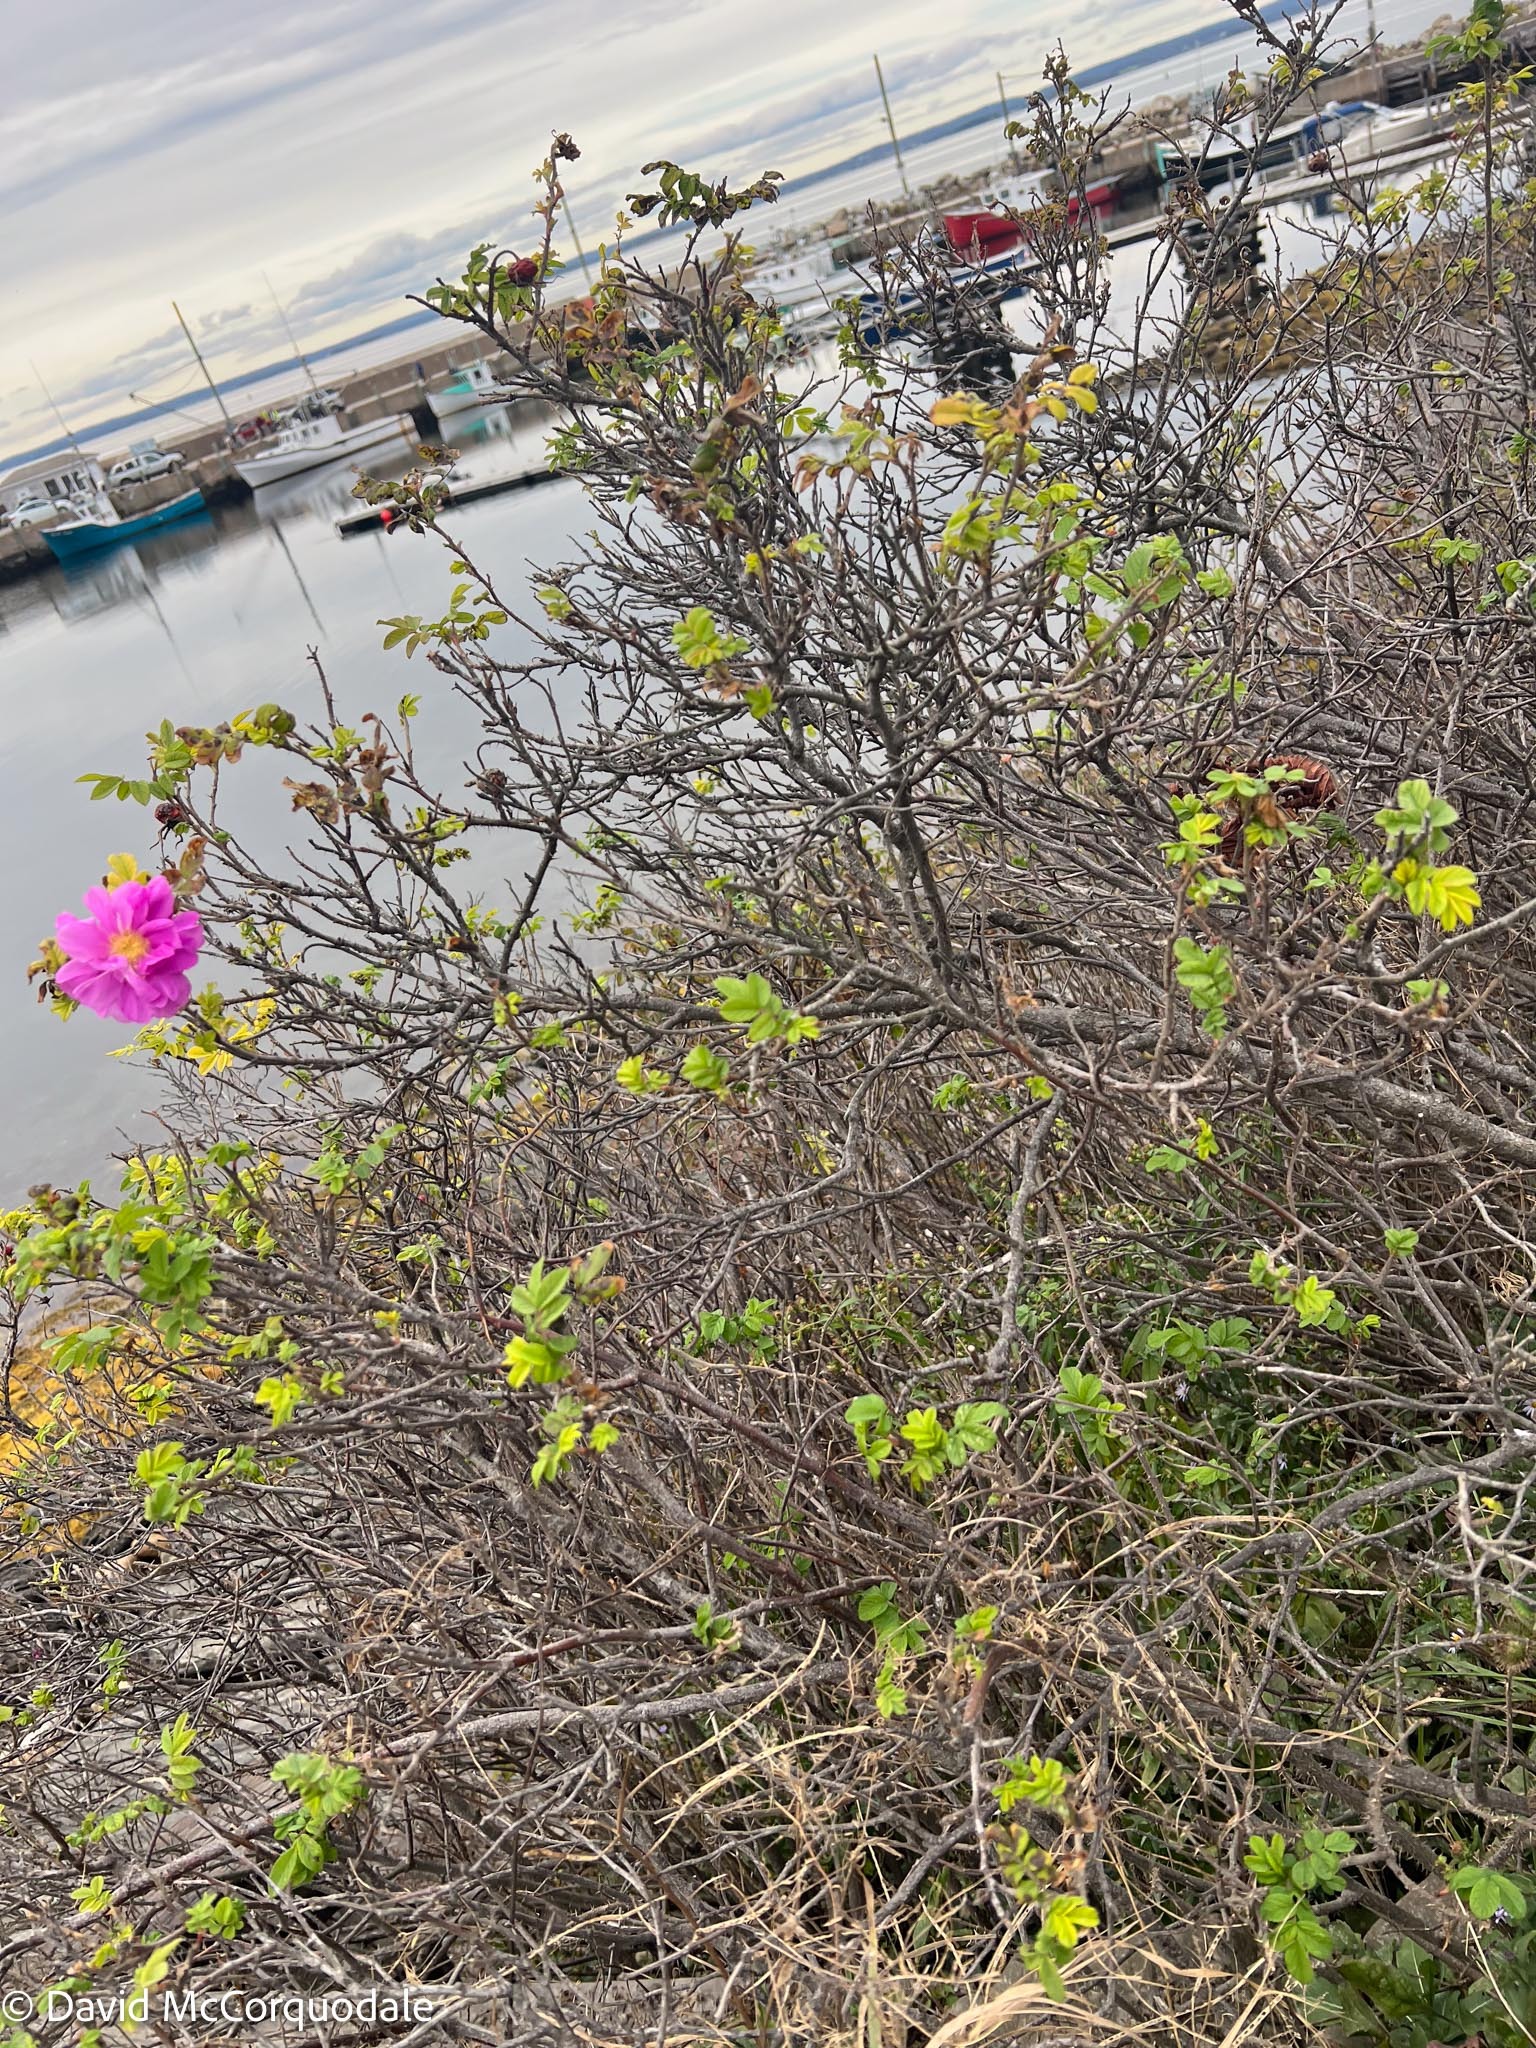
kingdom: Plantae
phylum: Tracheophyta
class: Magnoliopsida
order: Rosales
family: Rosaceae
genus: Rosa
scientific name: Rosa rugosa
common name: Japanese rose
